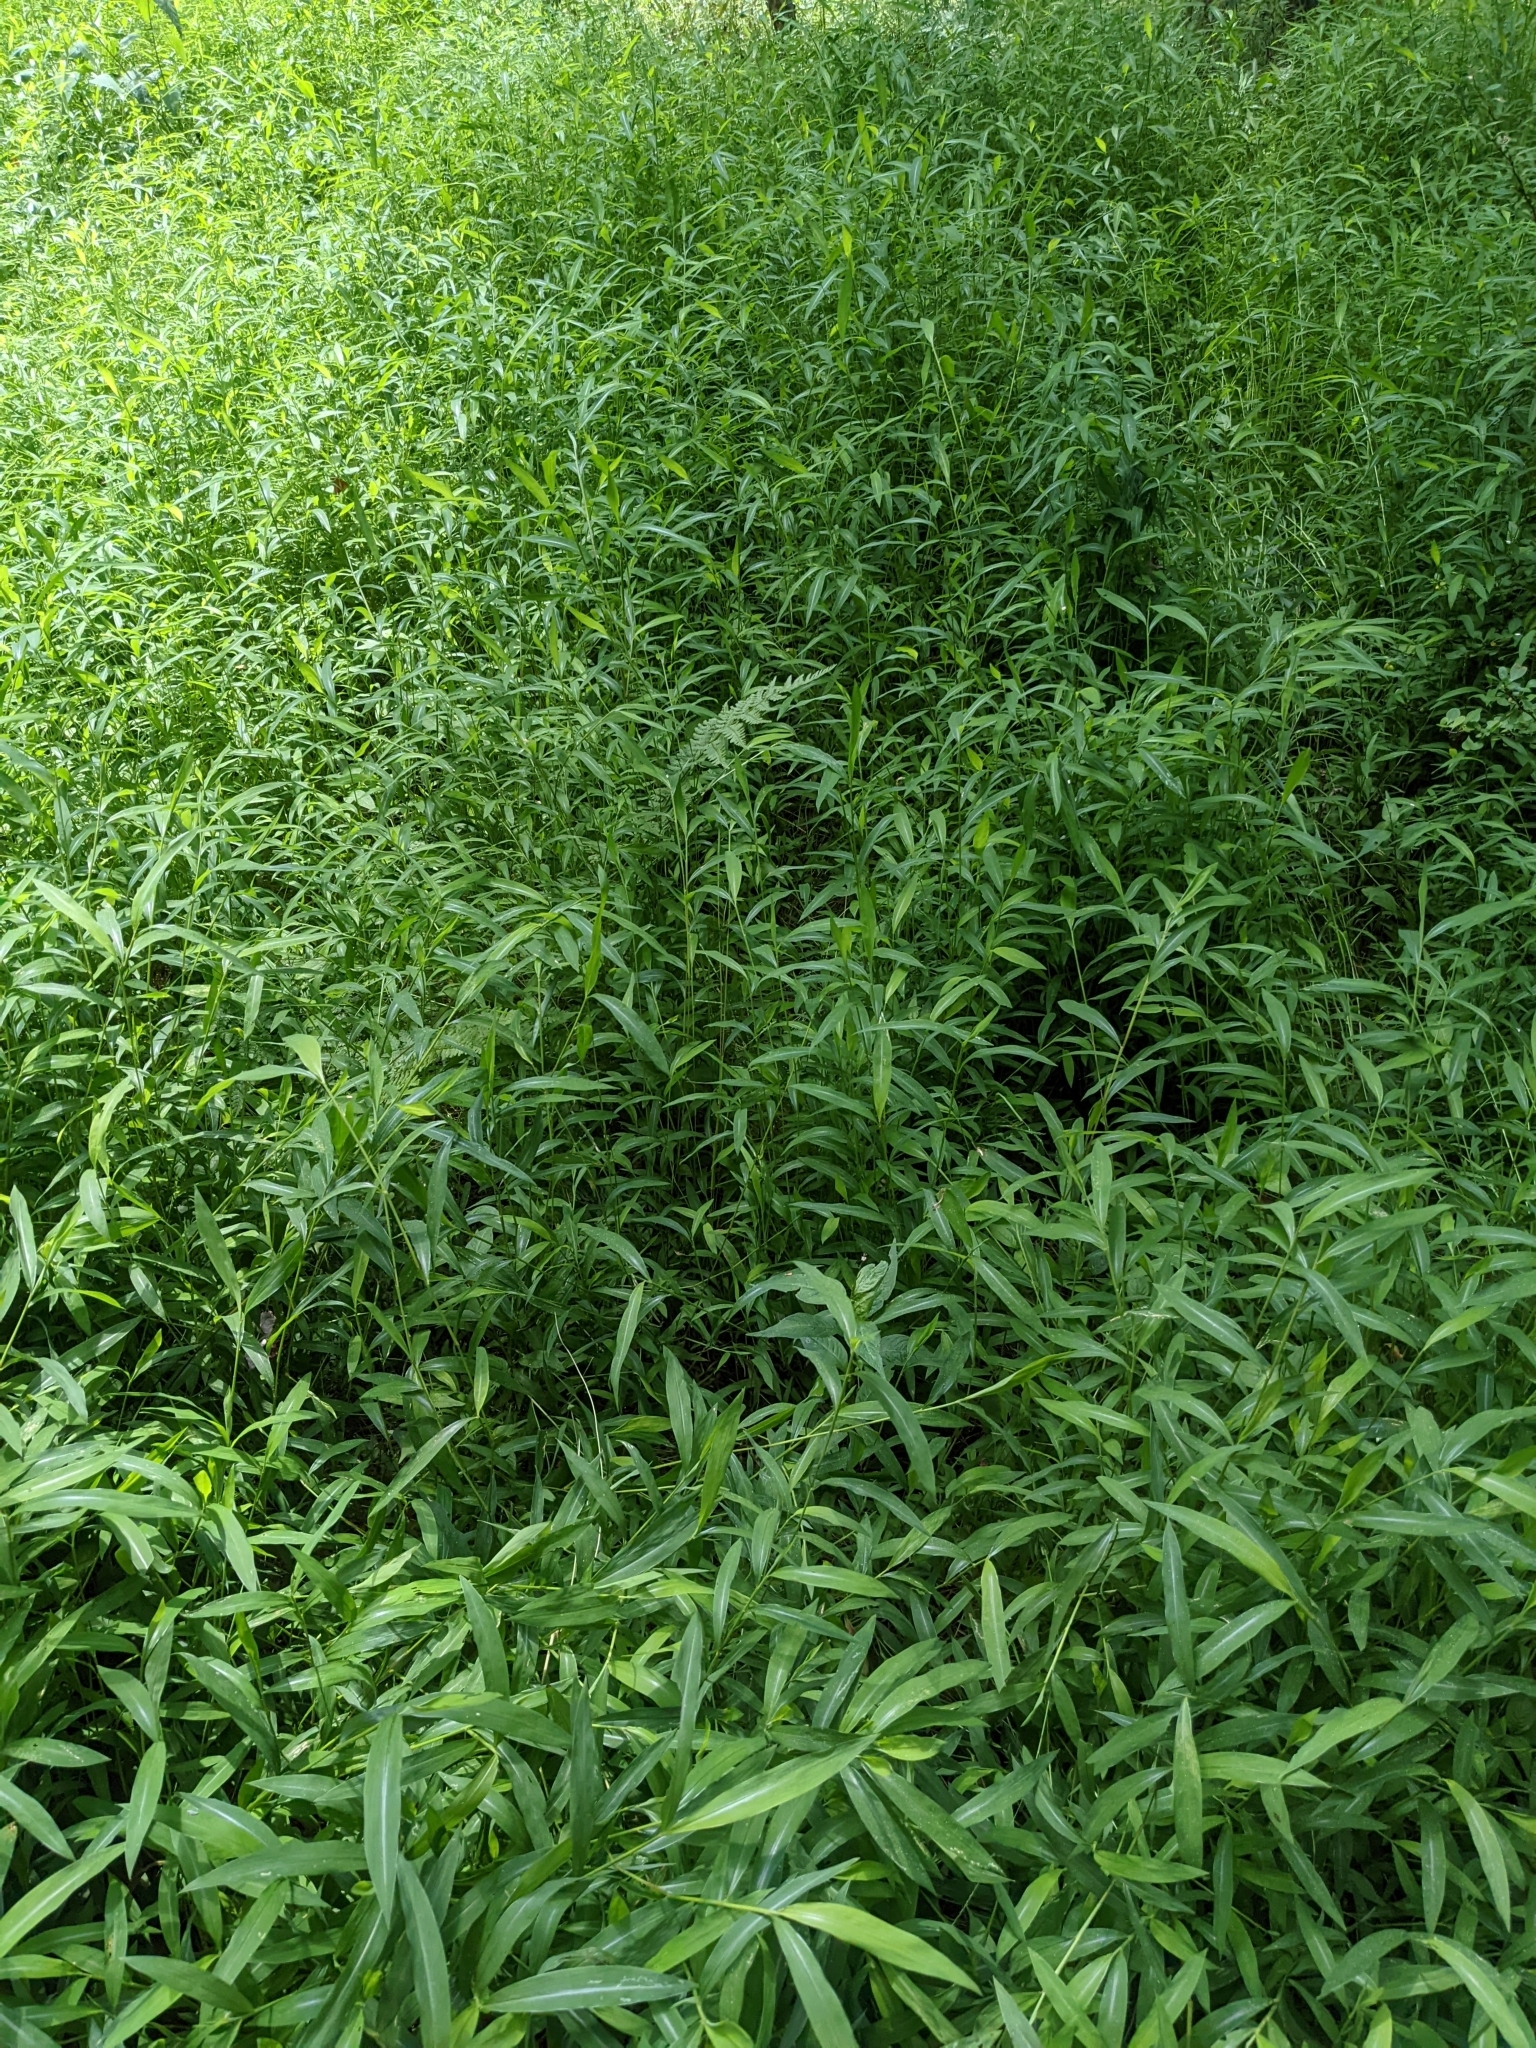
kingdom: Plantae
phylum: Tracheophyta
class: Liliopsida
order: Poales
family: Poaceae
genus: Microstegium
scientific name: Microstegium vimineum
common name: Japanese stiltgrass
